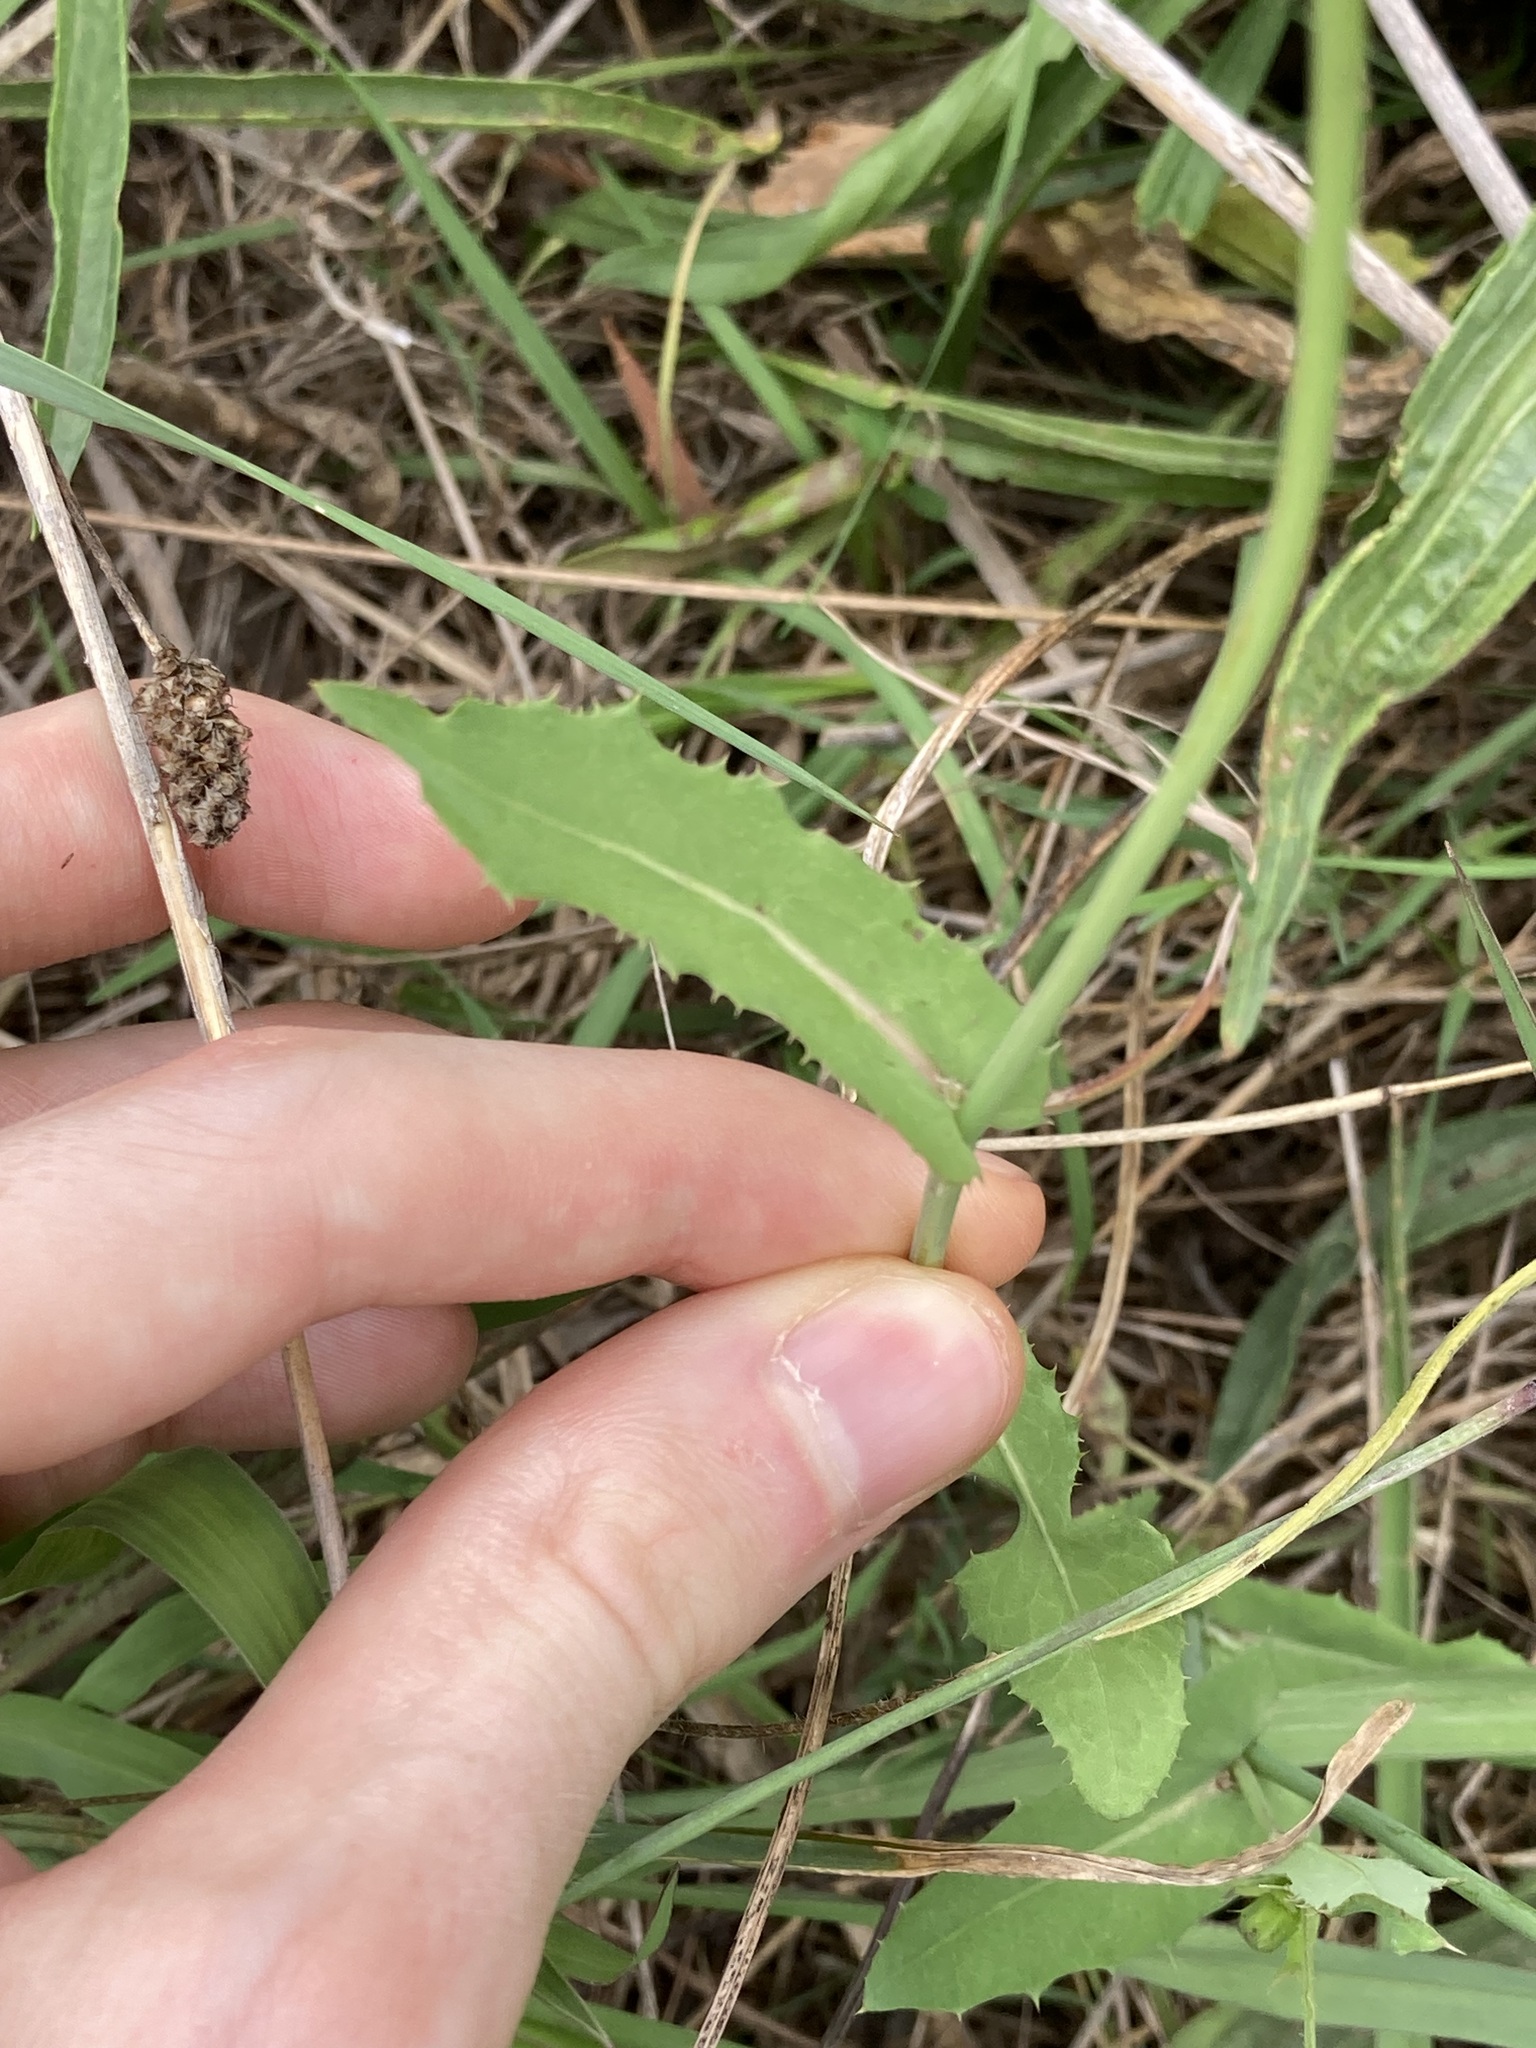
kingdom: Plantae
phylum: Tracheophyta
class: Magnoliopsida
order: Asterales
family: Asteraceae
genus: Sonchus
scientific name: Sonchus oleraceus
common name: Common sowthistle
